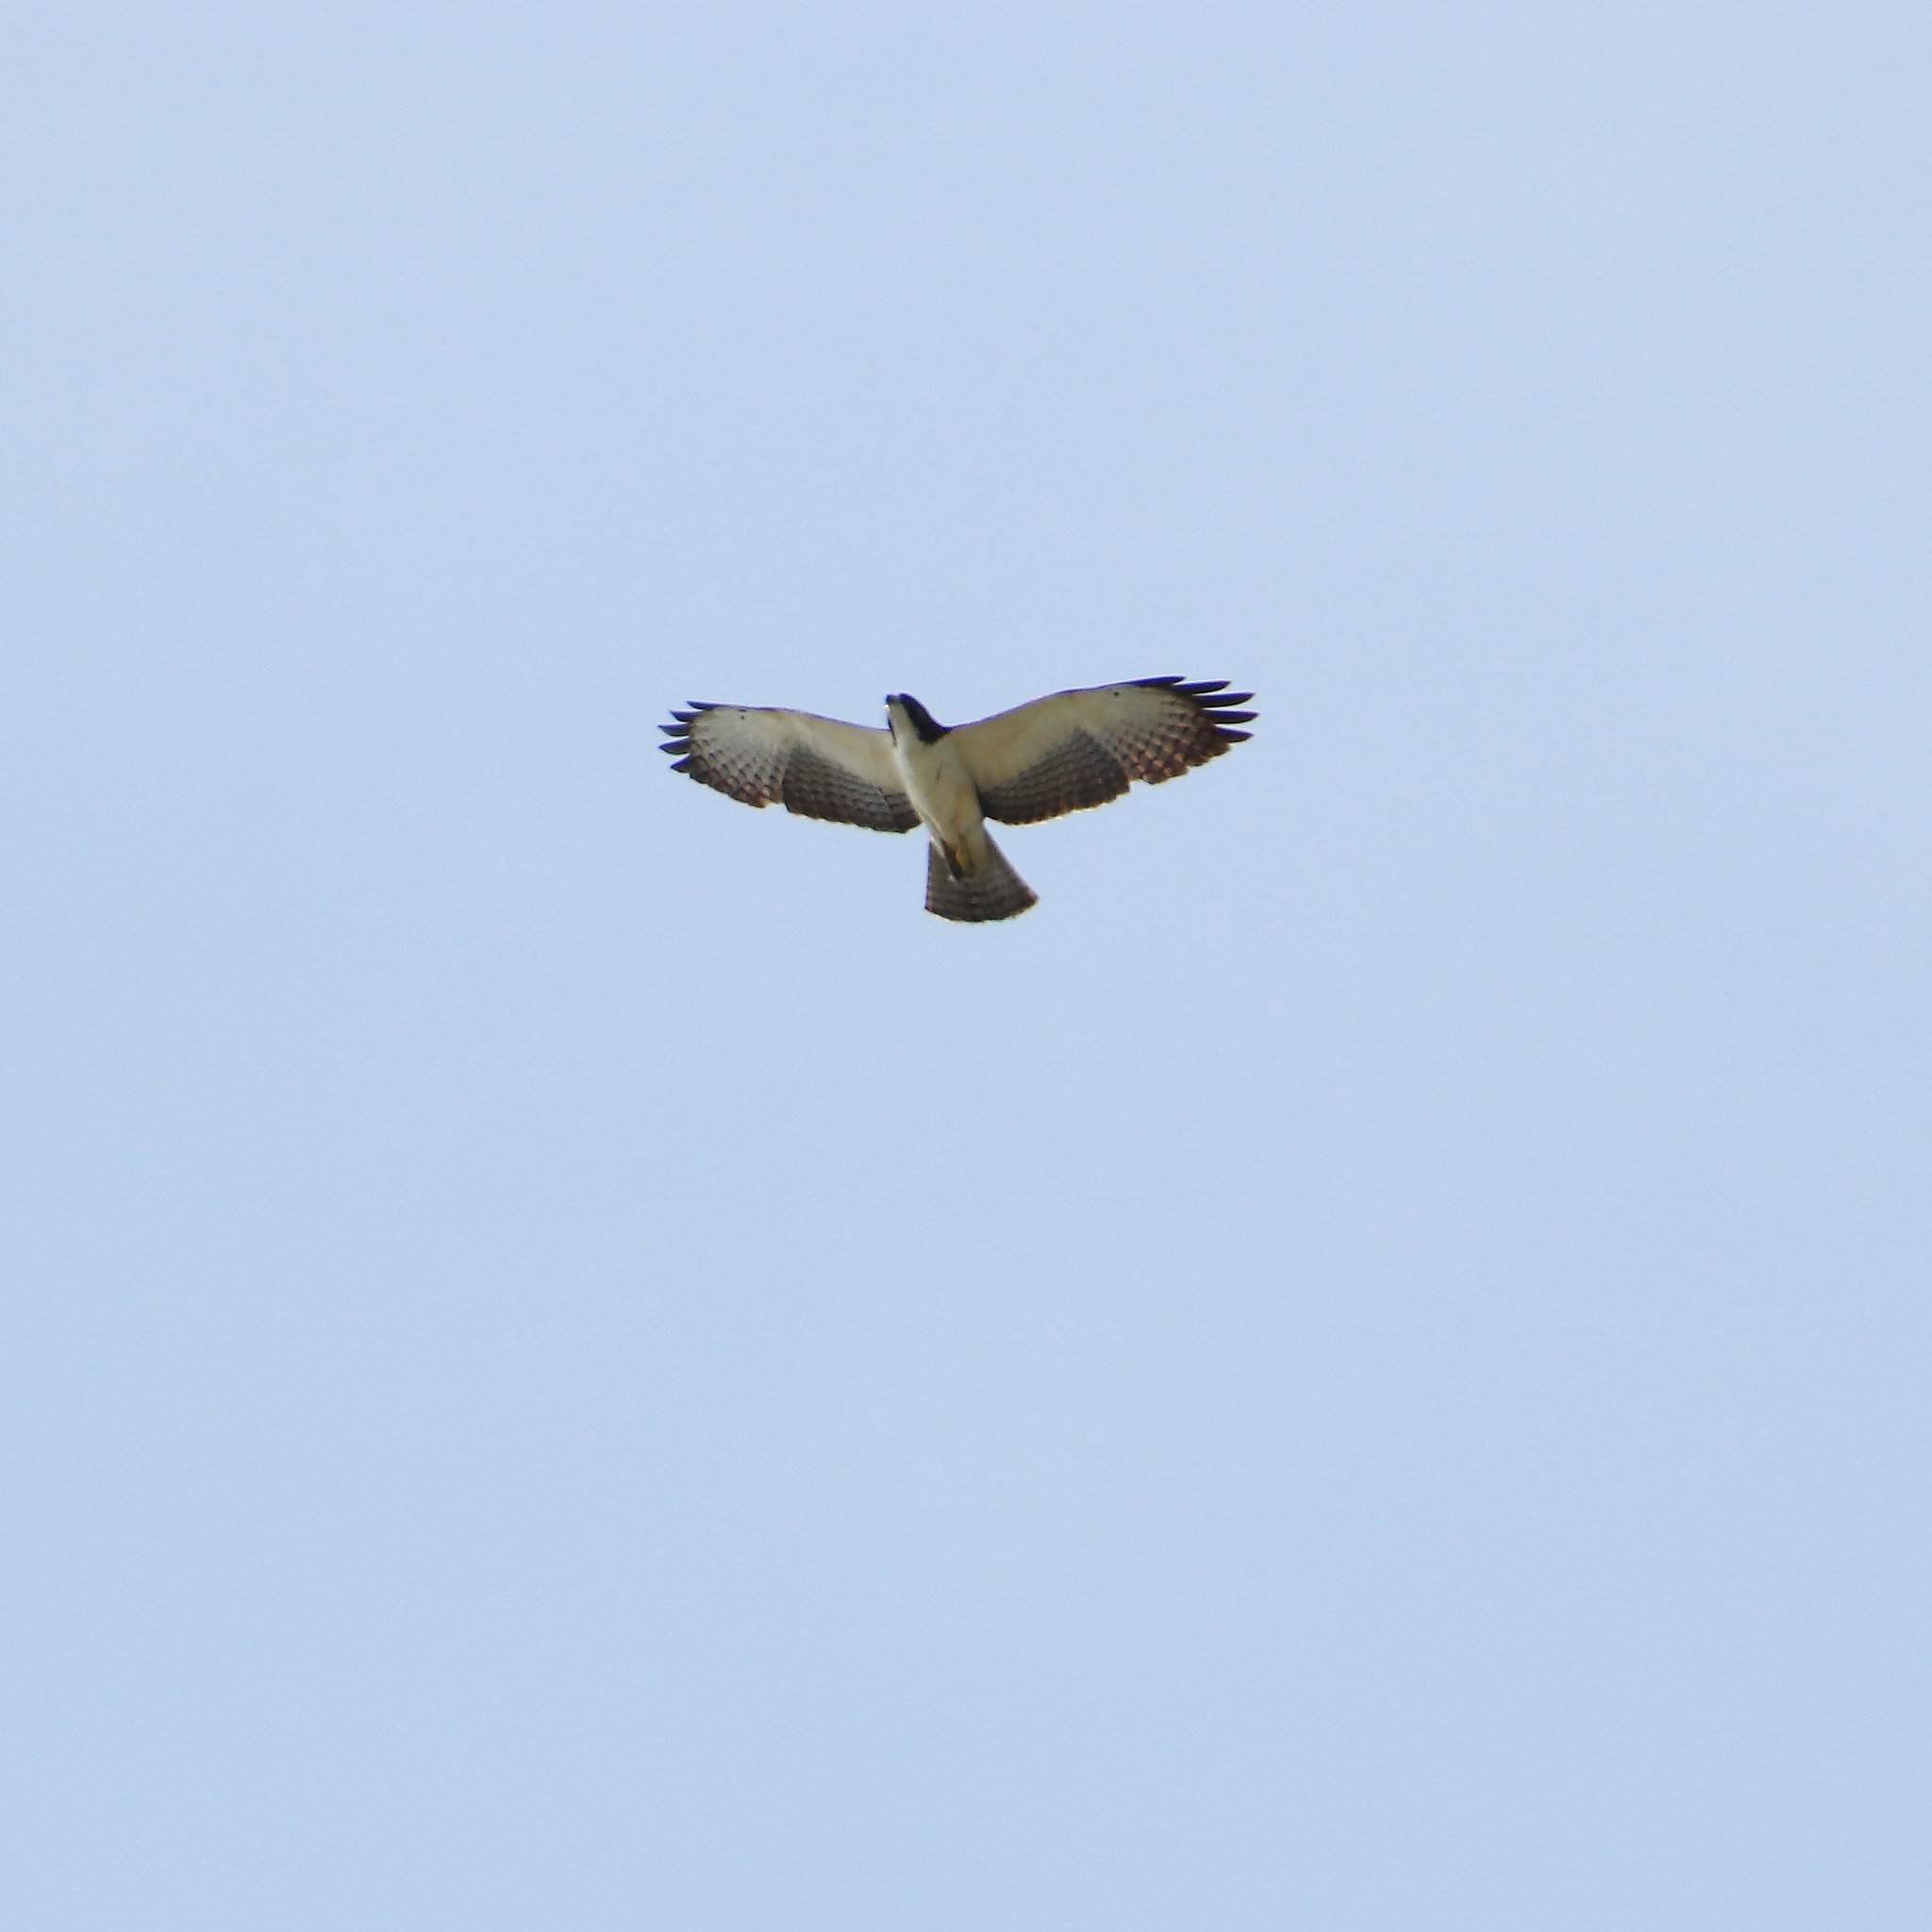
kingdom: Animalia
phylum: Chordata
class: Aves
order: Accipitriformes
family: Accipitridae
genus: Buteo
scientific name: Buteo brachyurus
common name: Short-tailed hawk
